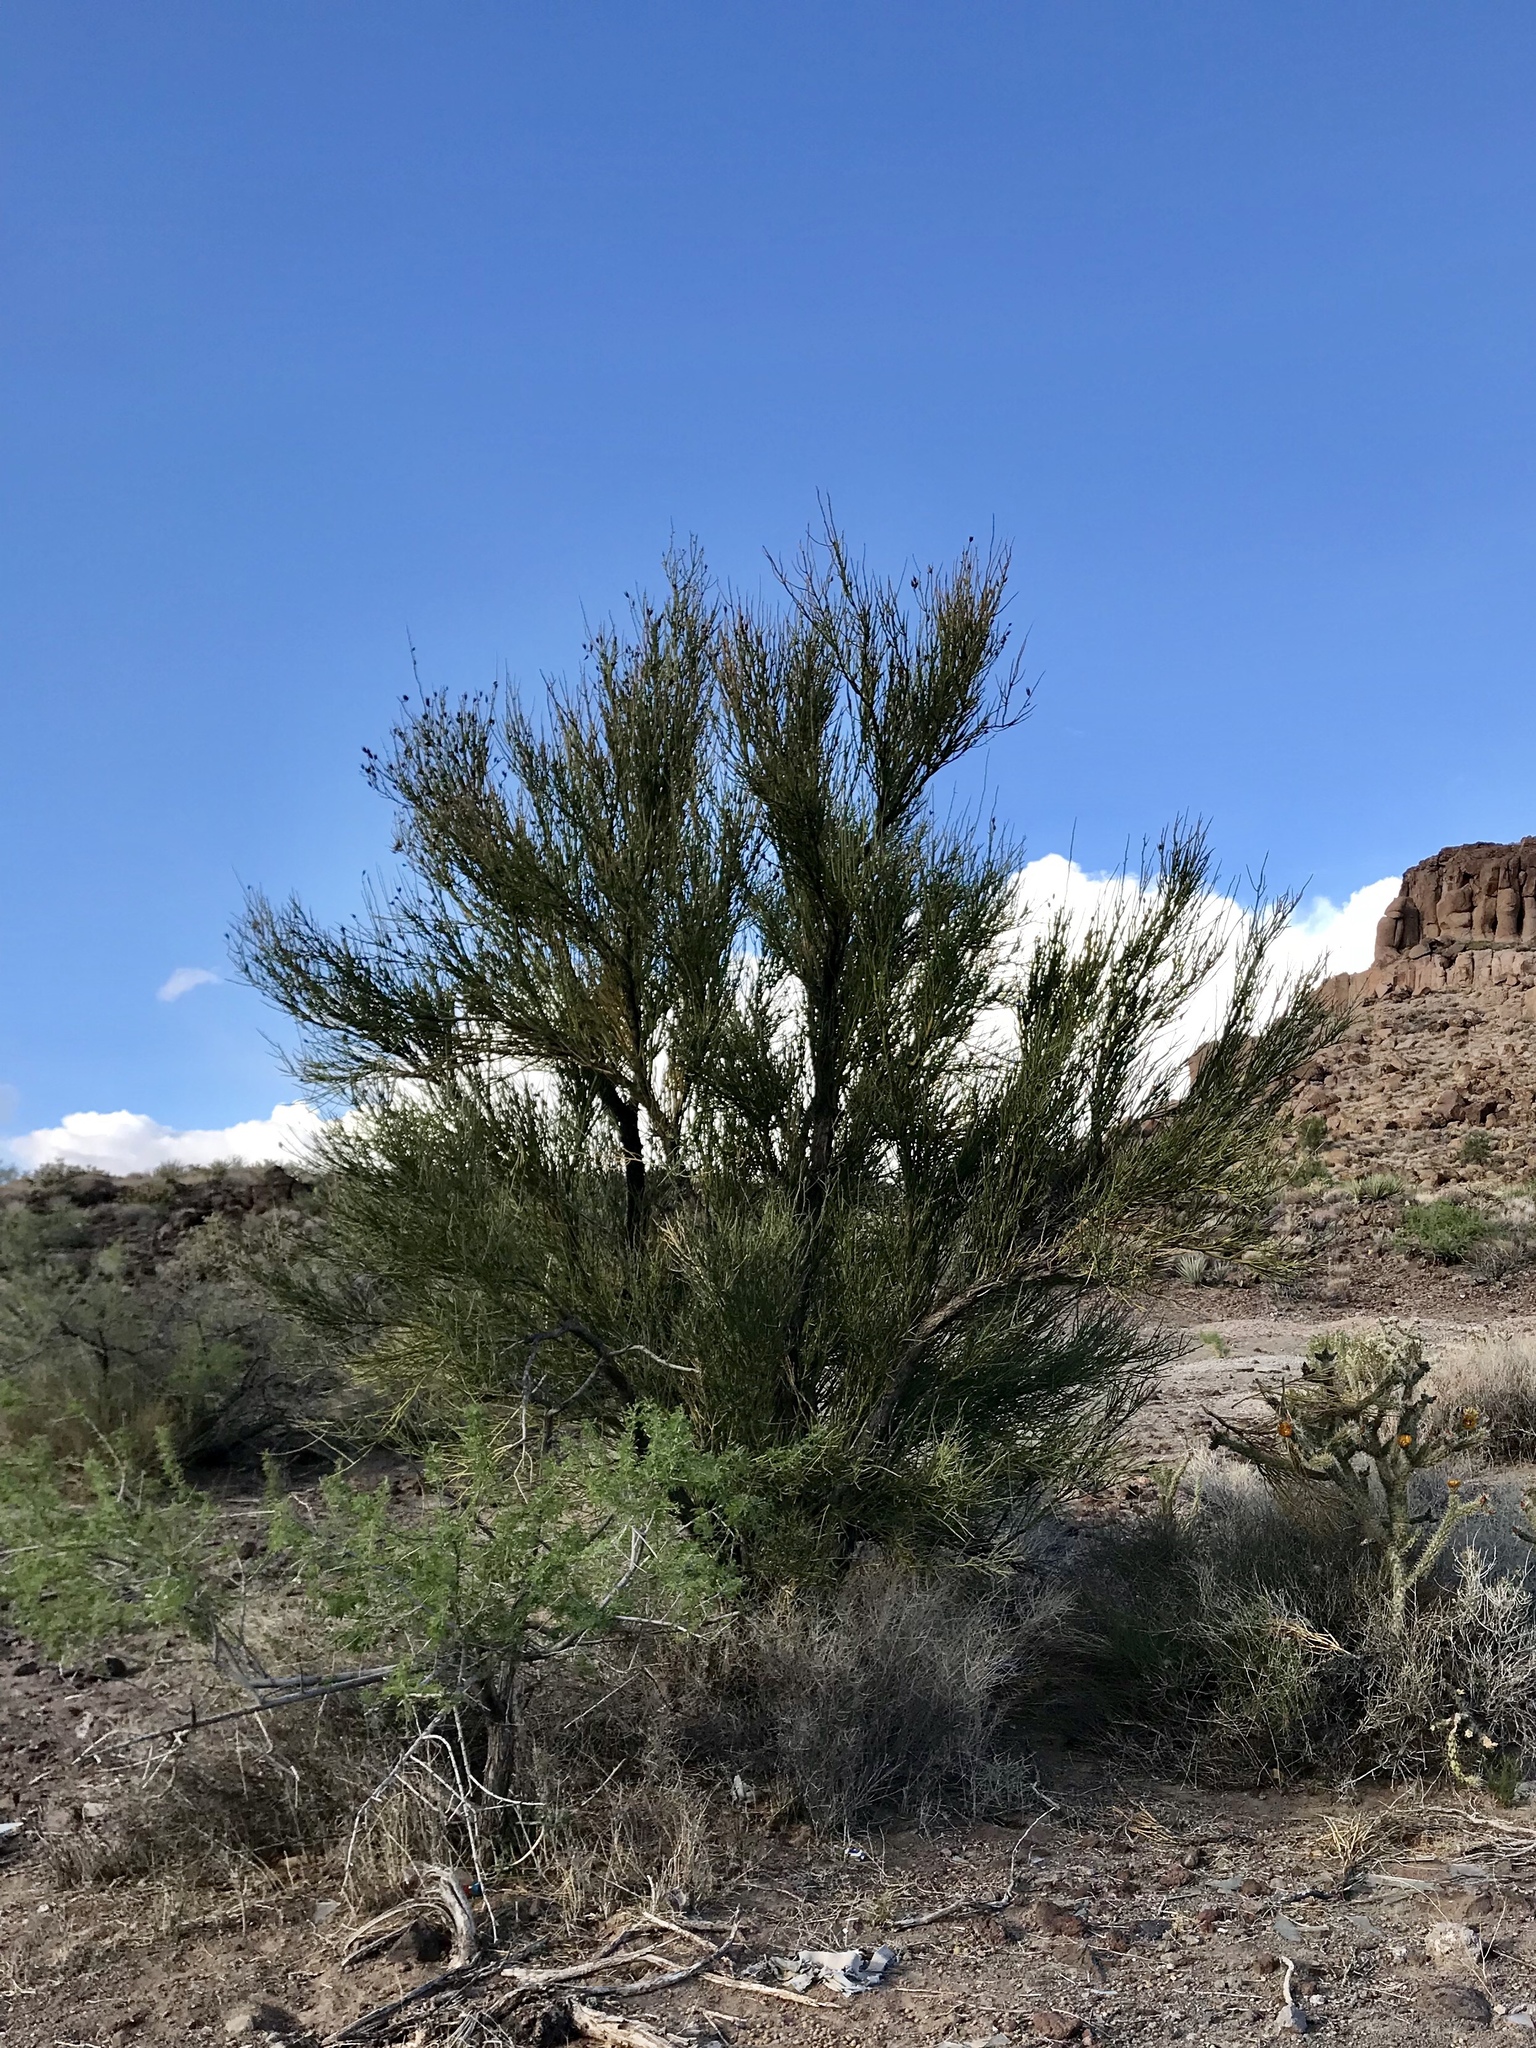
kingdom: Plantae
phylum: Tracheophyta
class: Magnoliopsida
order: Celastrales
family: Celastraceae
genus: Canotia
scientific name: Canotia holacantha
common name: Crucifixion thorns
